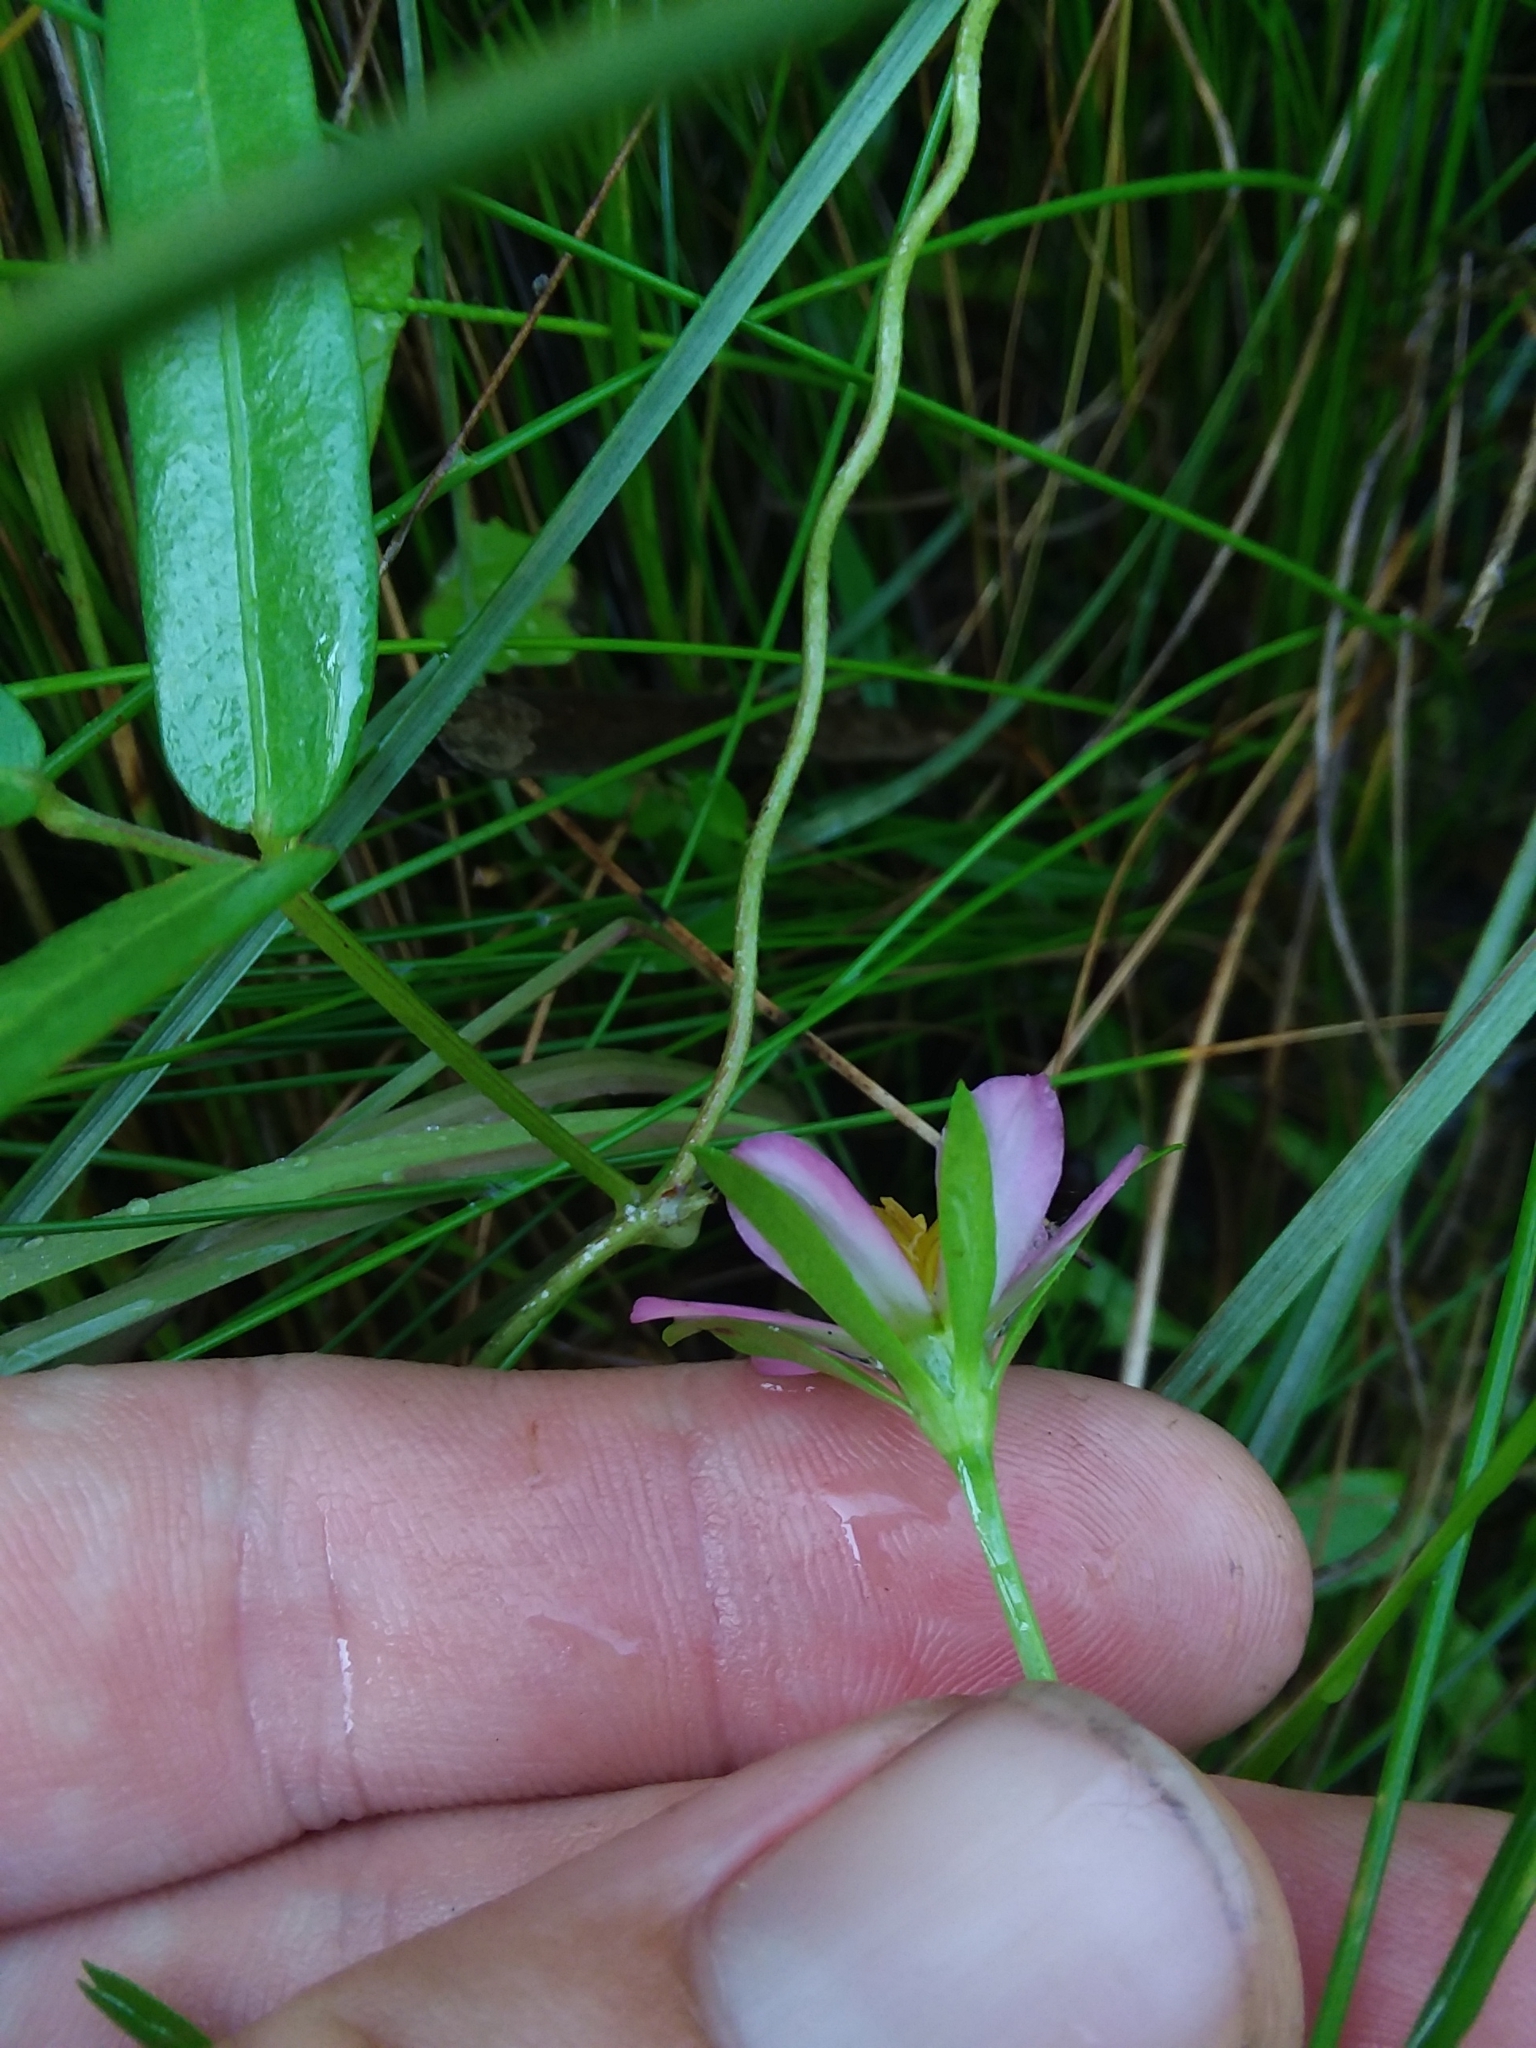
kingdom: Plantae
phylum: Tracheophyta
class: Magnoliopsida
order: Gentianales
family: Gentianaceae
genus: Sabatia
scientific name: Sabatia calycina
